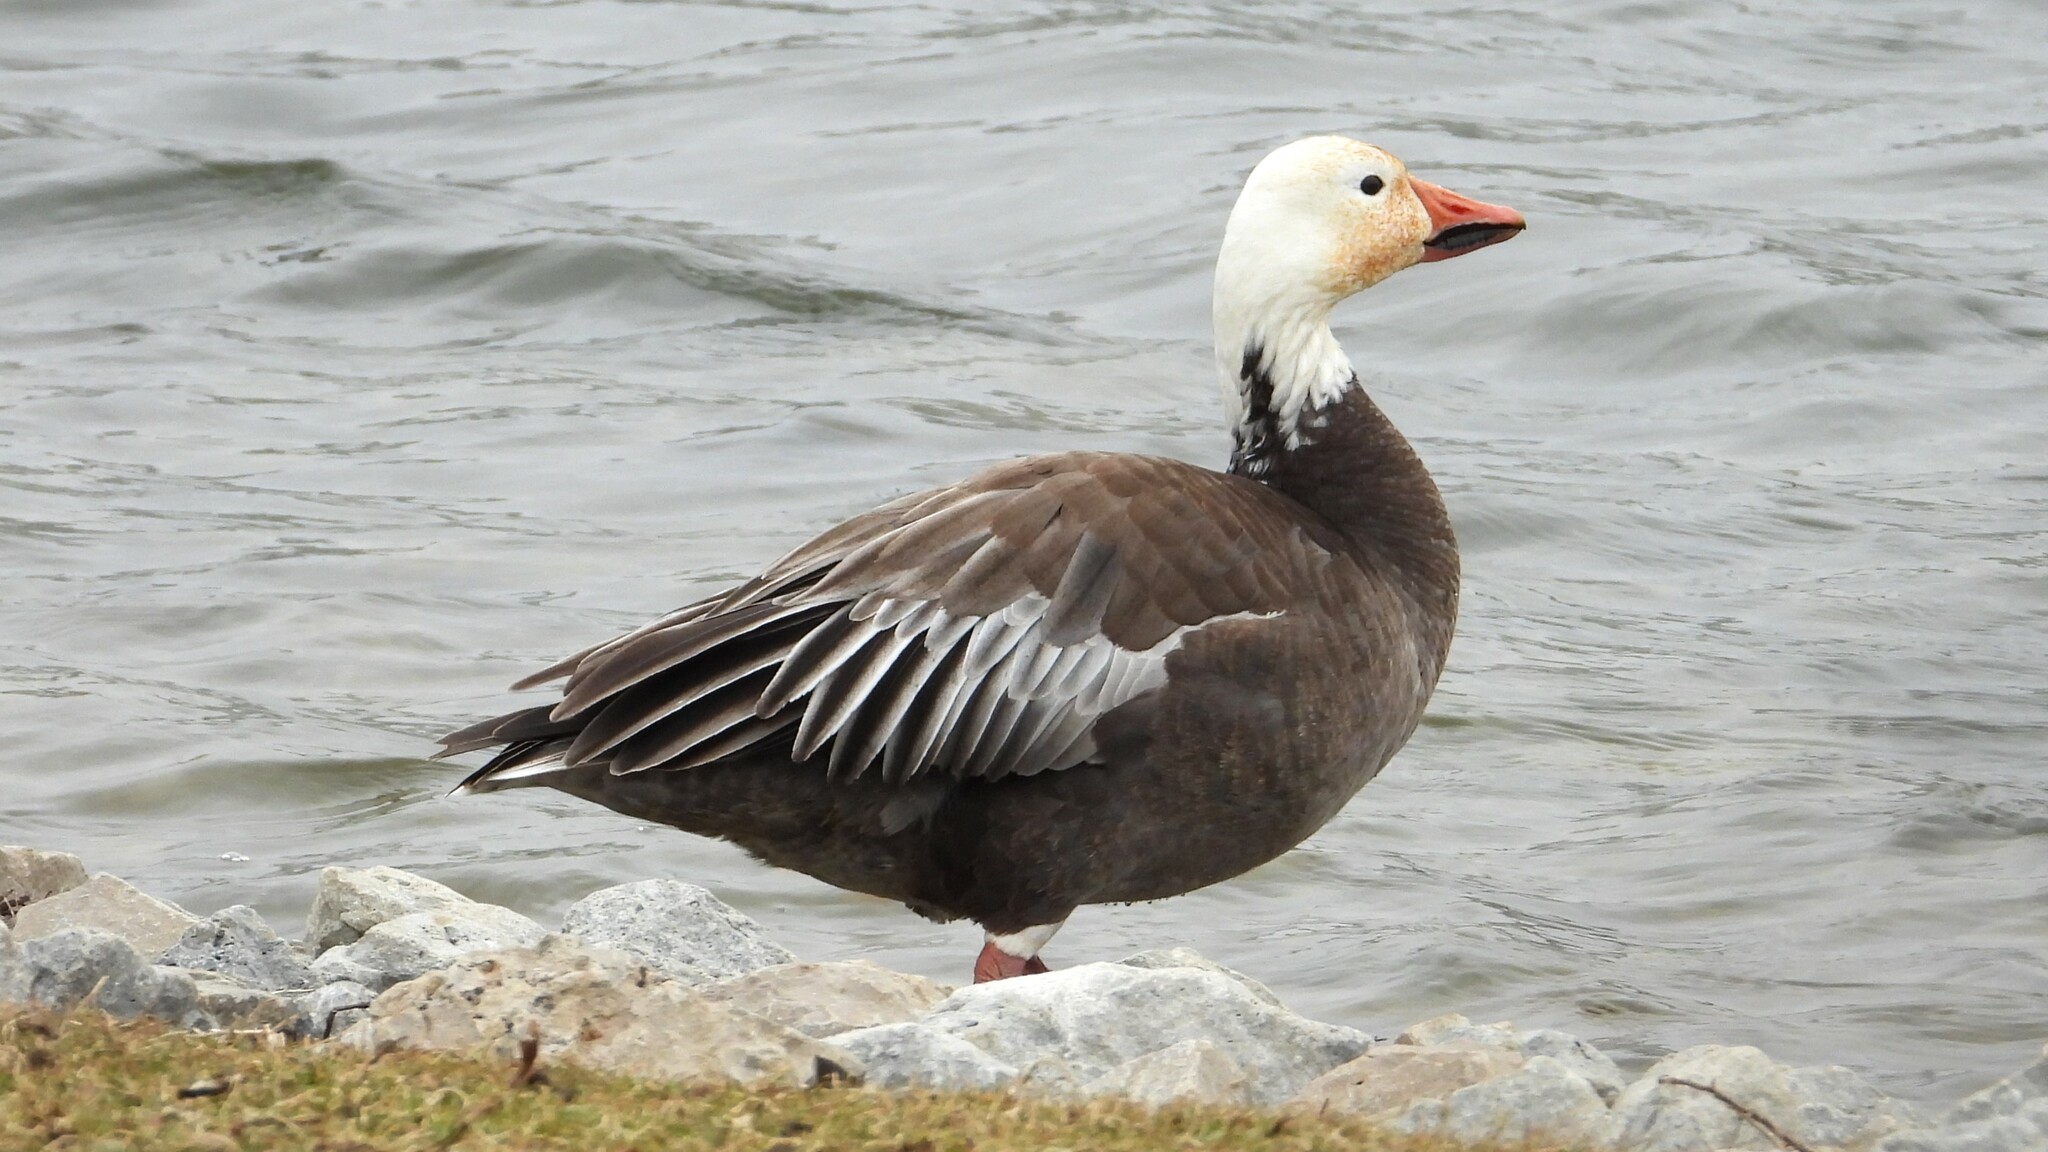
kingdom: Animalia
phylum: Chordata
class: Aves
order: Anseriformes
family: Anatidae
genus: Anser
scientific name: Anser caerulescens
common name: Snow goose
